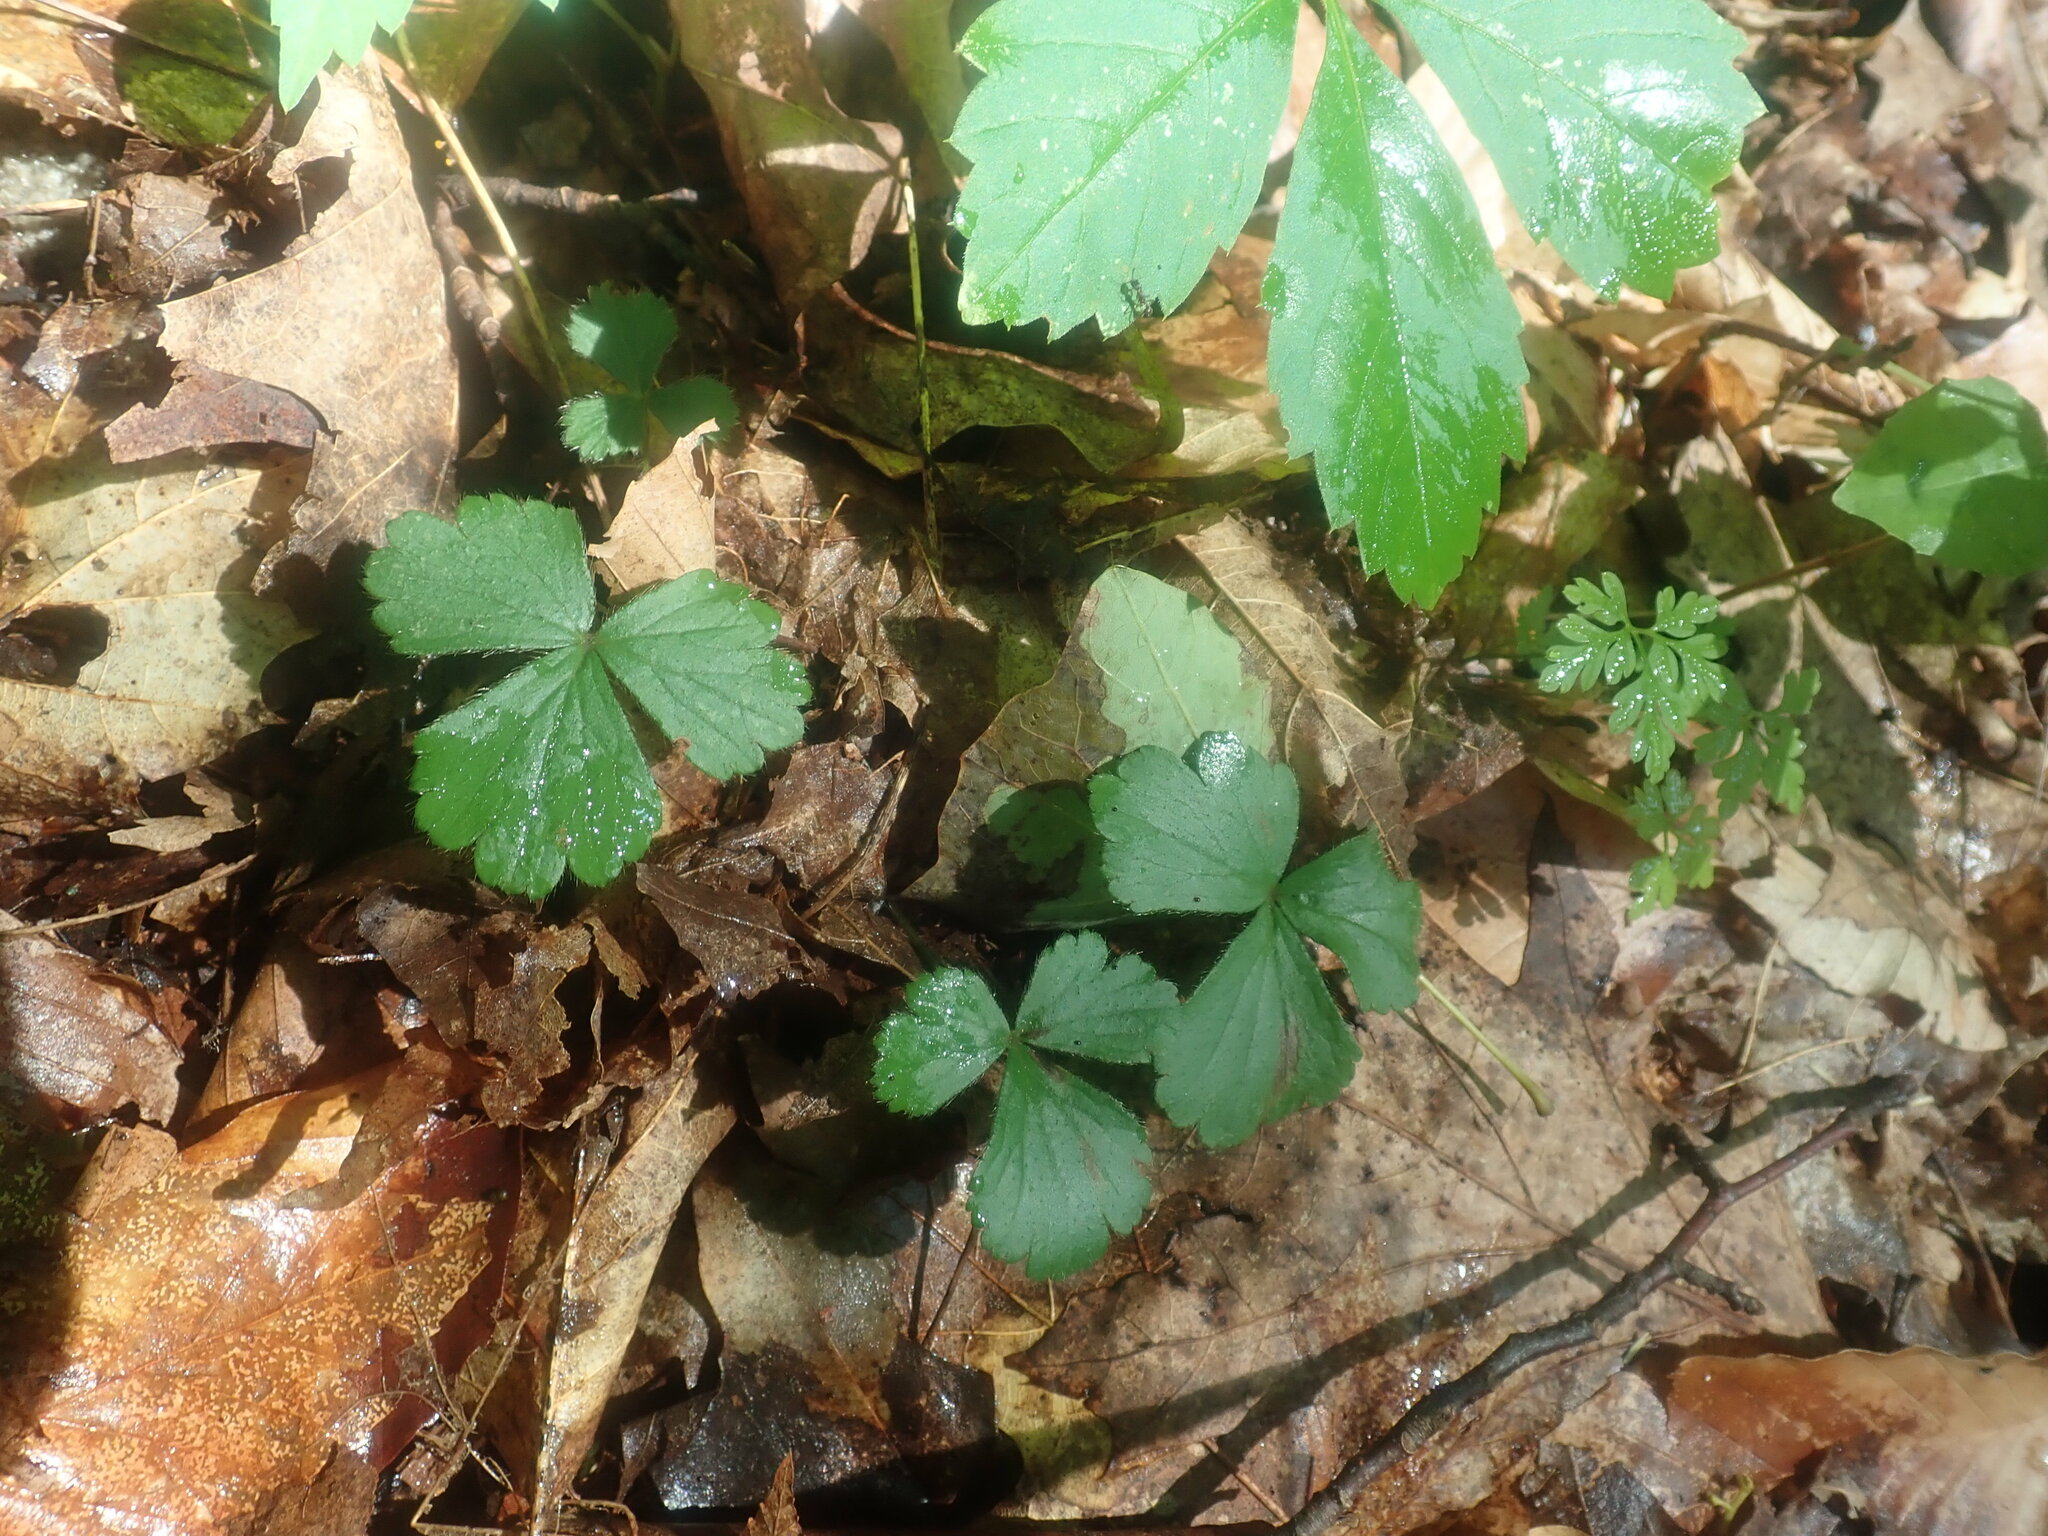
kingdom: Plantae
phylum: Tracheophyta
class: Magnoliopsida
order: Rosales
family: Rosaceae
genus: Geum
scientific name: Geum fragarioides
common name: Appalachian barren strawberry
